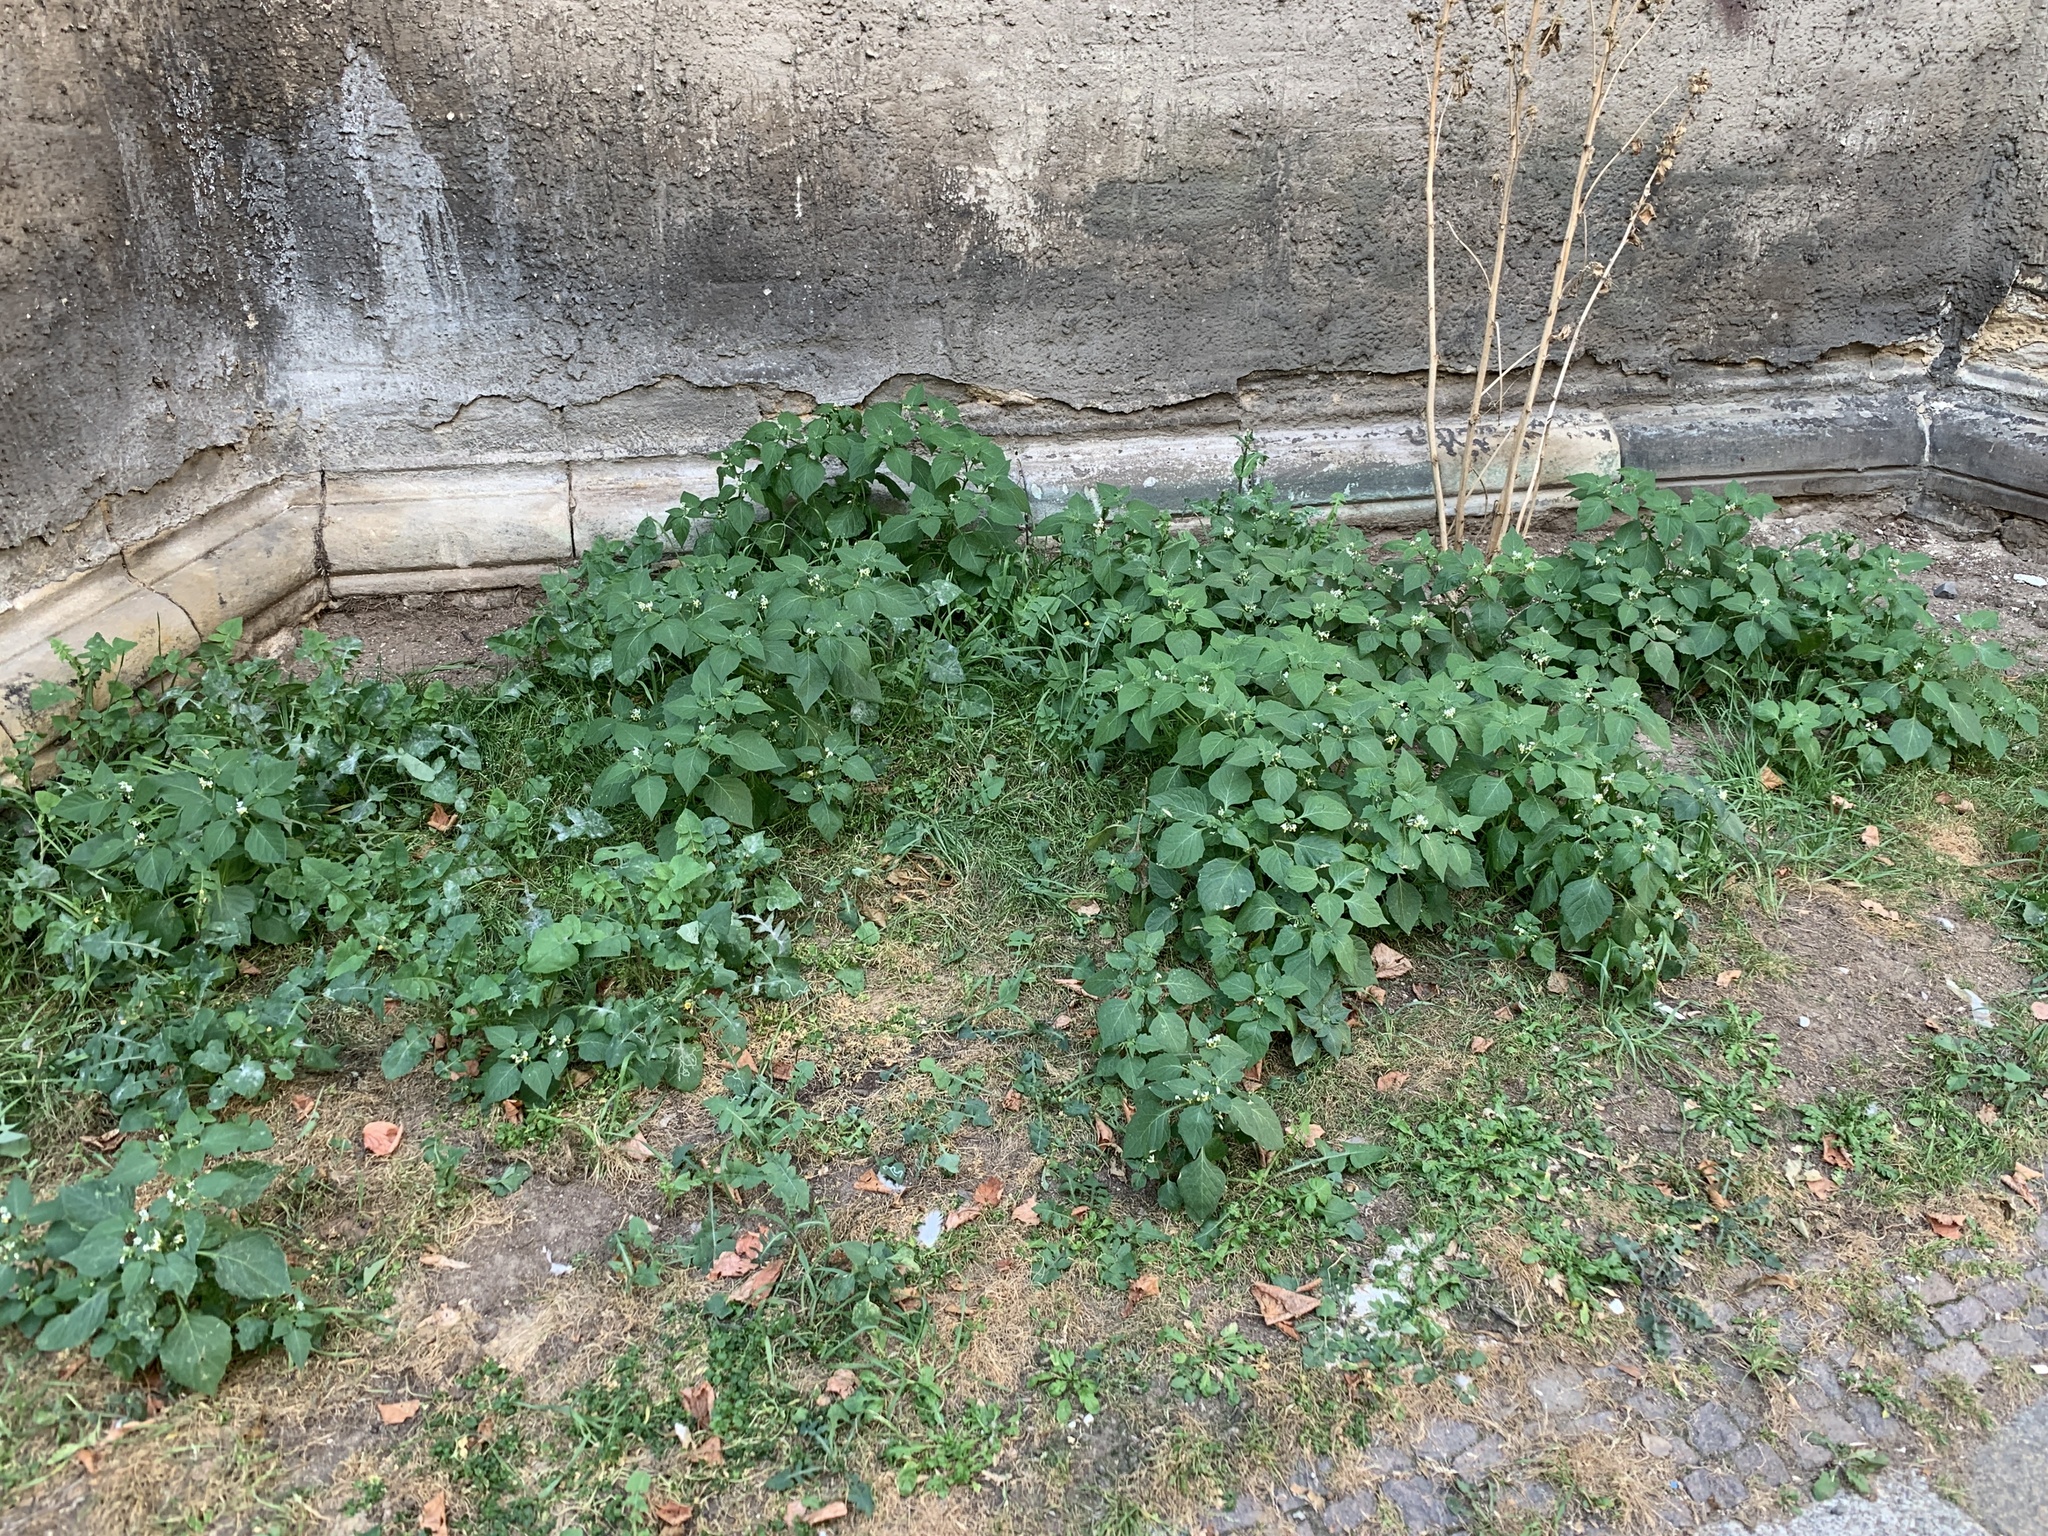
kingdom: Plantae
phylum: Tracheophyta
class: Magnoliopsida
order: Solanales
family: Solanaceae
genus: Solanum
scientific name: Solanum nigrum
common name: Black nightshade
